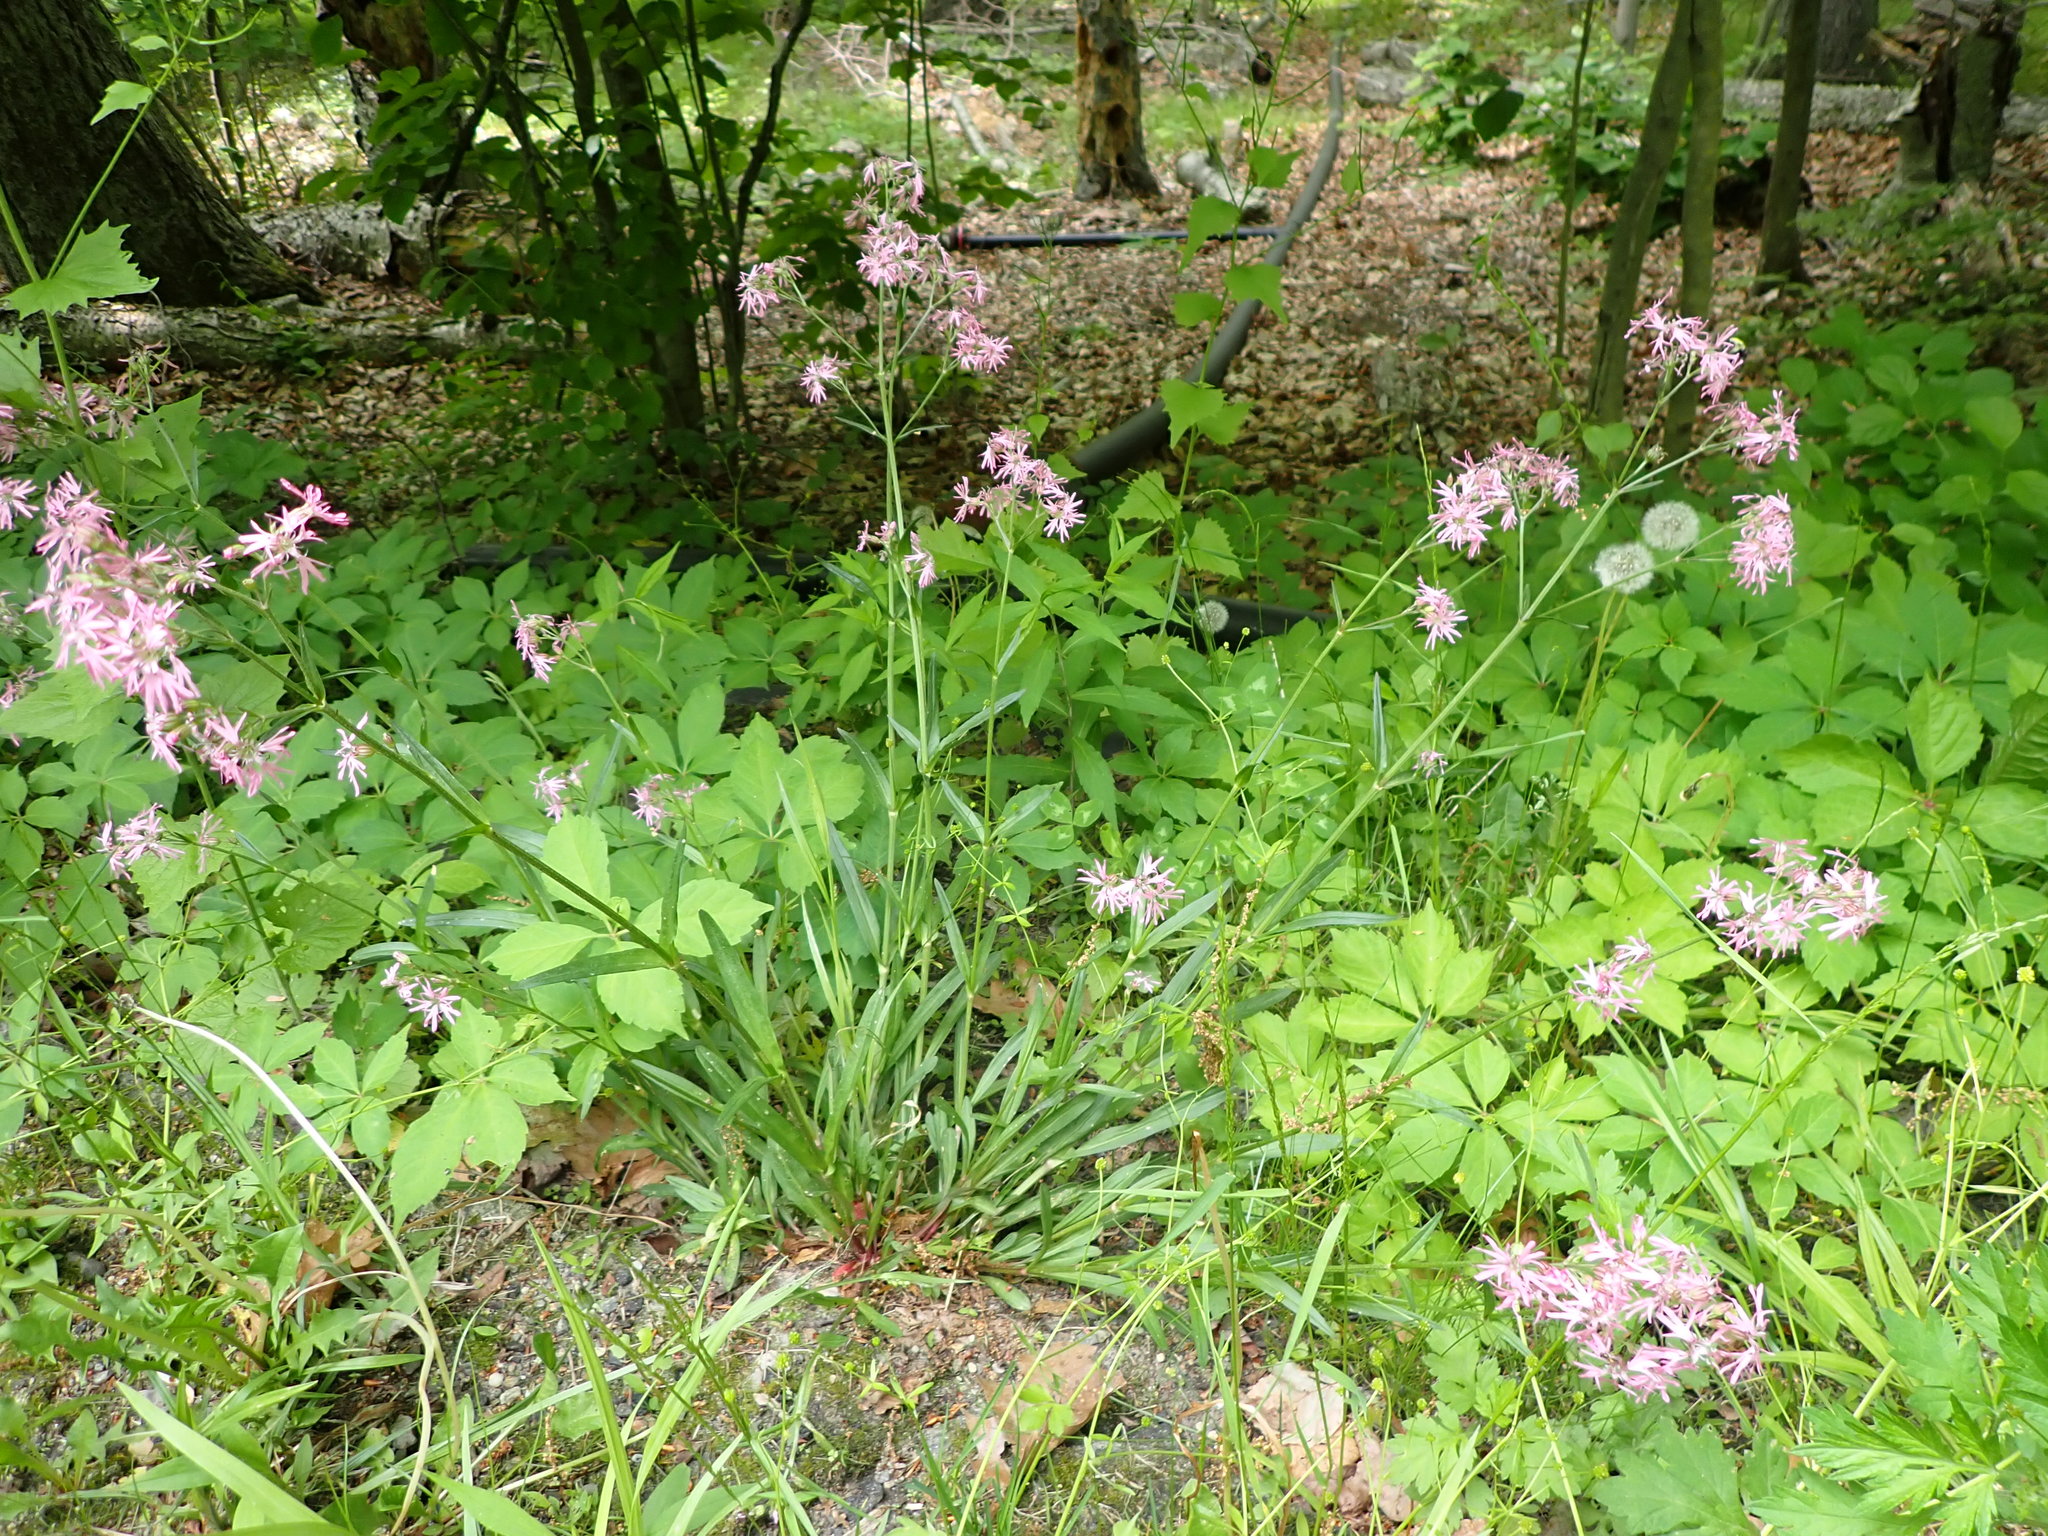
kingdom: Plantae
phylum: Tracheophyta
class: Magnoliopsida
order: Caryophyllales
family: Caryophyllaceae
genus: Silene
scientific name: Silene flos-cuculi
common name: Ragged-robin
